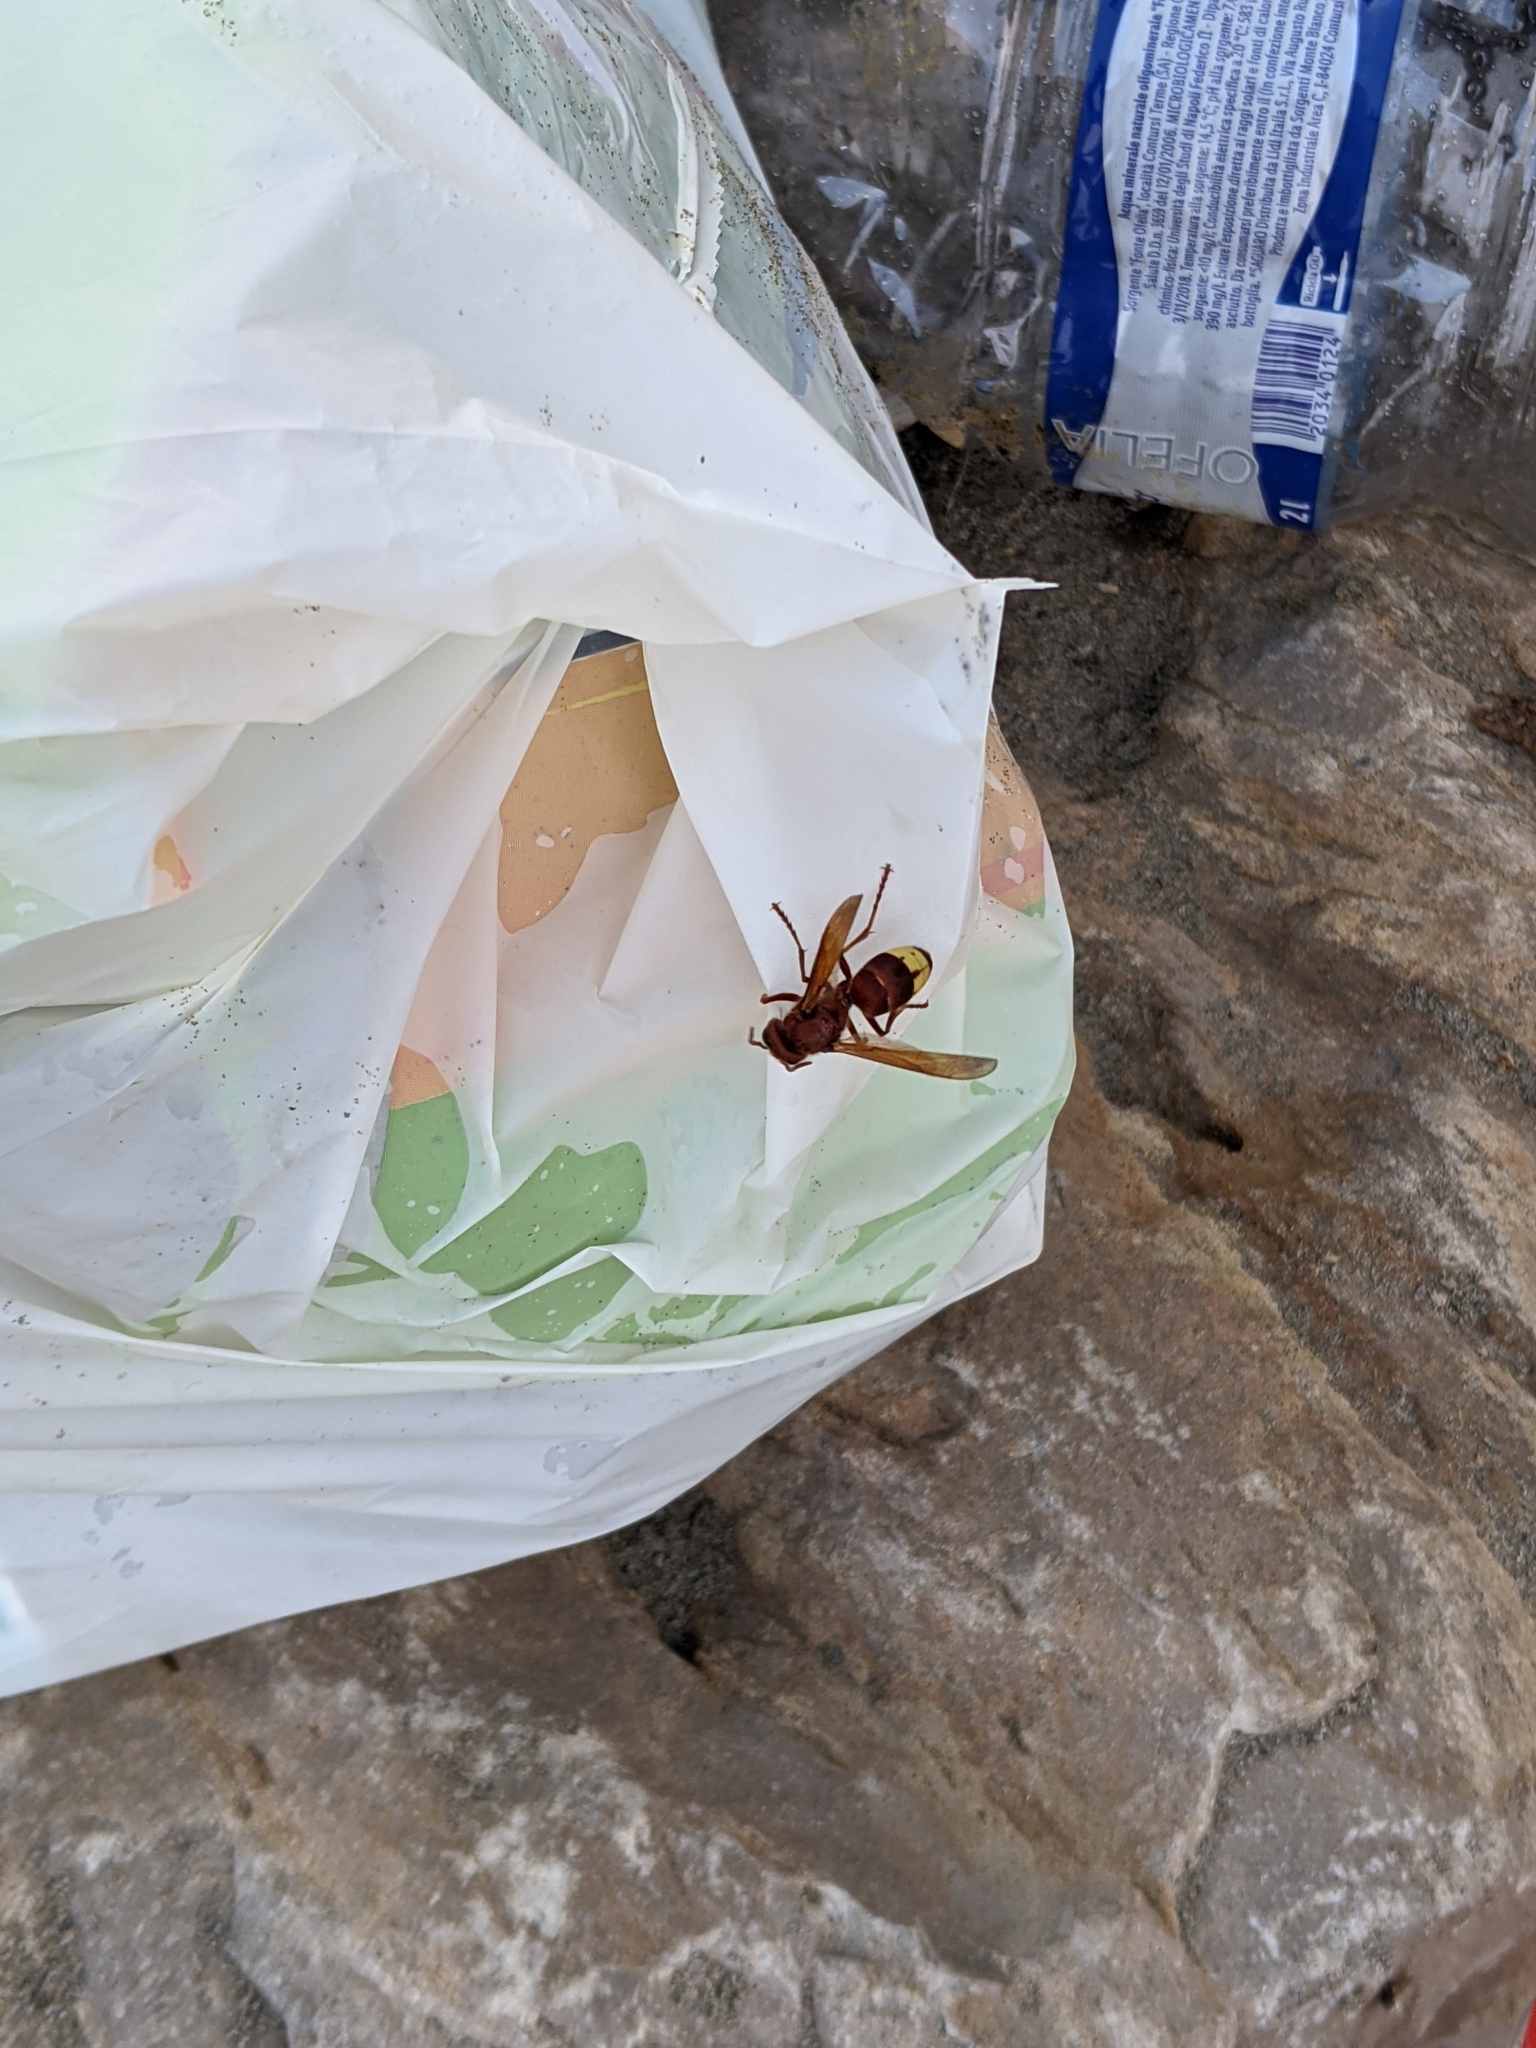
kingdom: Animalia
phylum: Arthropoda
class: Insecta
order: Hymenoptera
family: Vespidae
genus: Vespa
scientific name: Vespa orientalis
